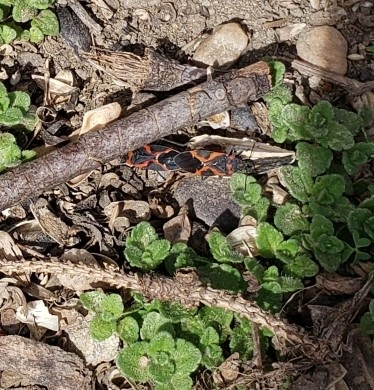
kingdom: Animalia
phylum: Arthropoda
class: Insecta
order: Hemiptera
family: Lygaeidae
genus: Lygaeus
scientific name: Lygaeus kalmii
